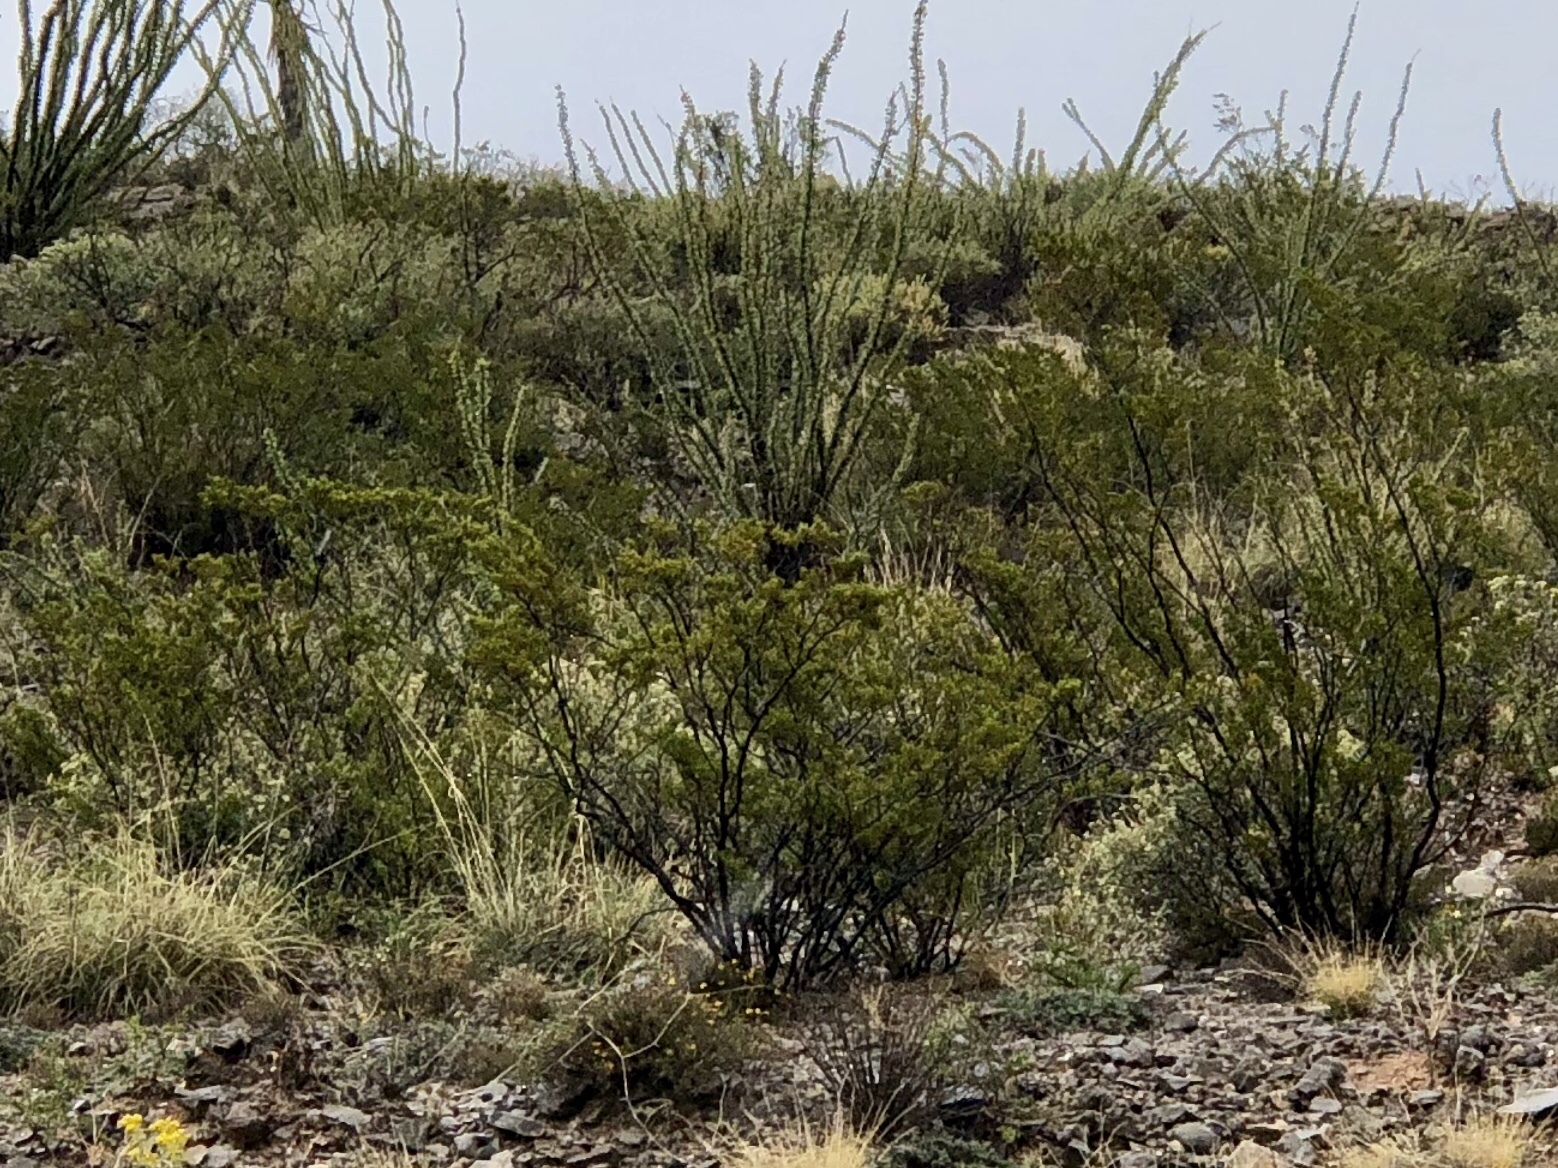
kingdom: Plantae
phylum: Tracheophyta
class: Magnoliopsida
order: Zygophyllales
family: Zygophyllaceae
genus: Larrea
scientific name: Larrea tridentata
